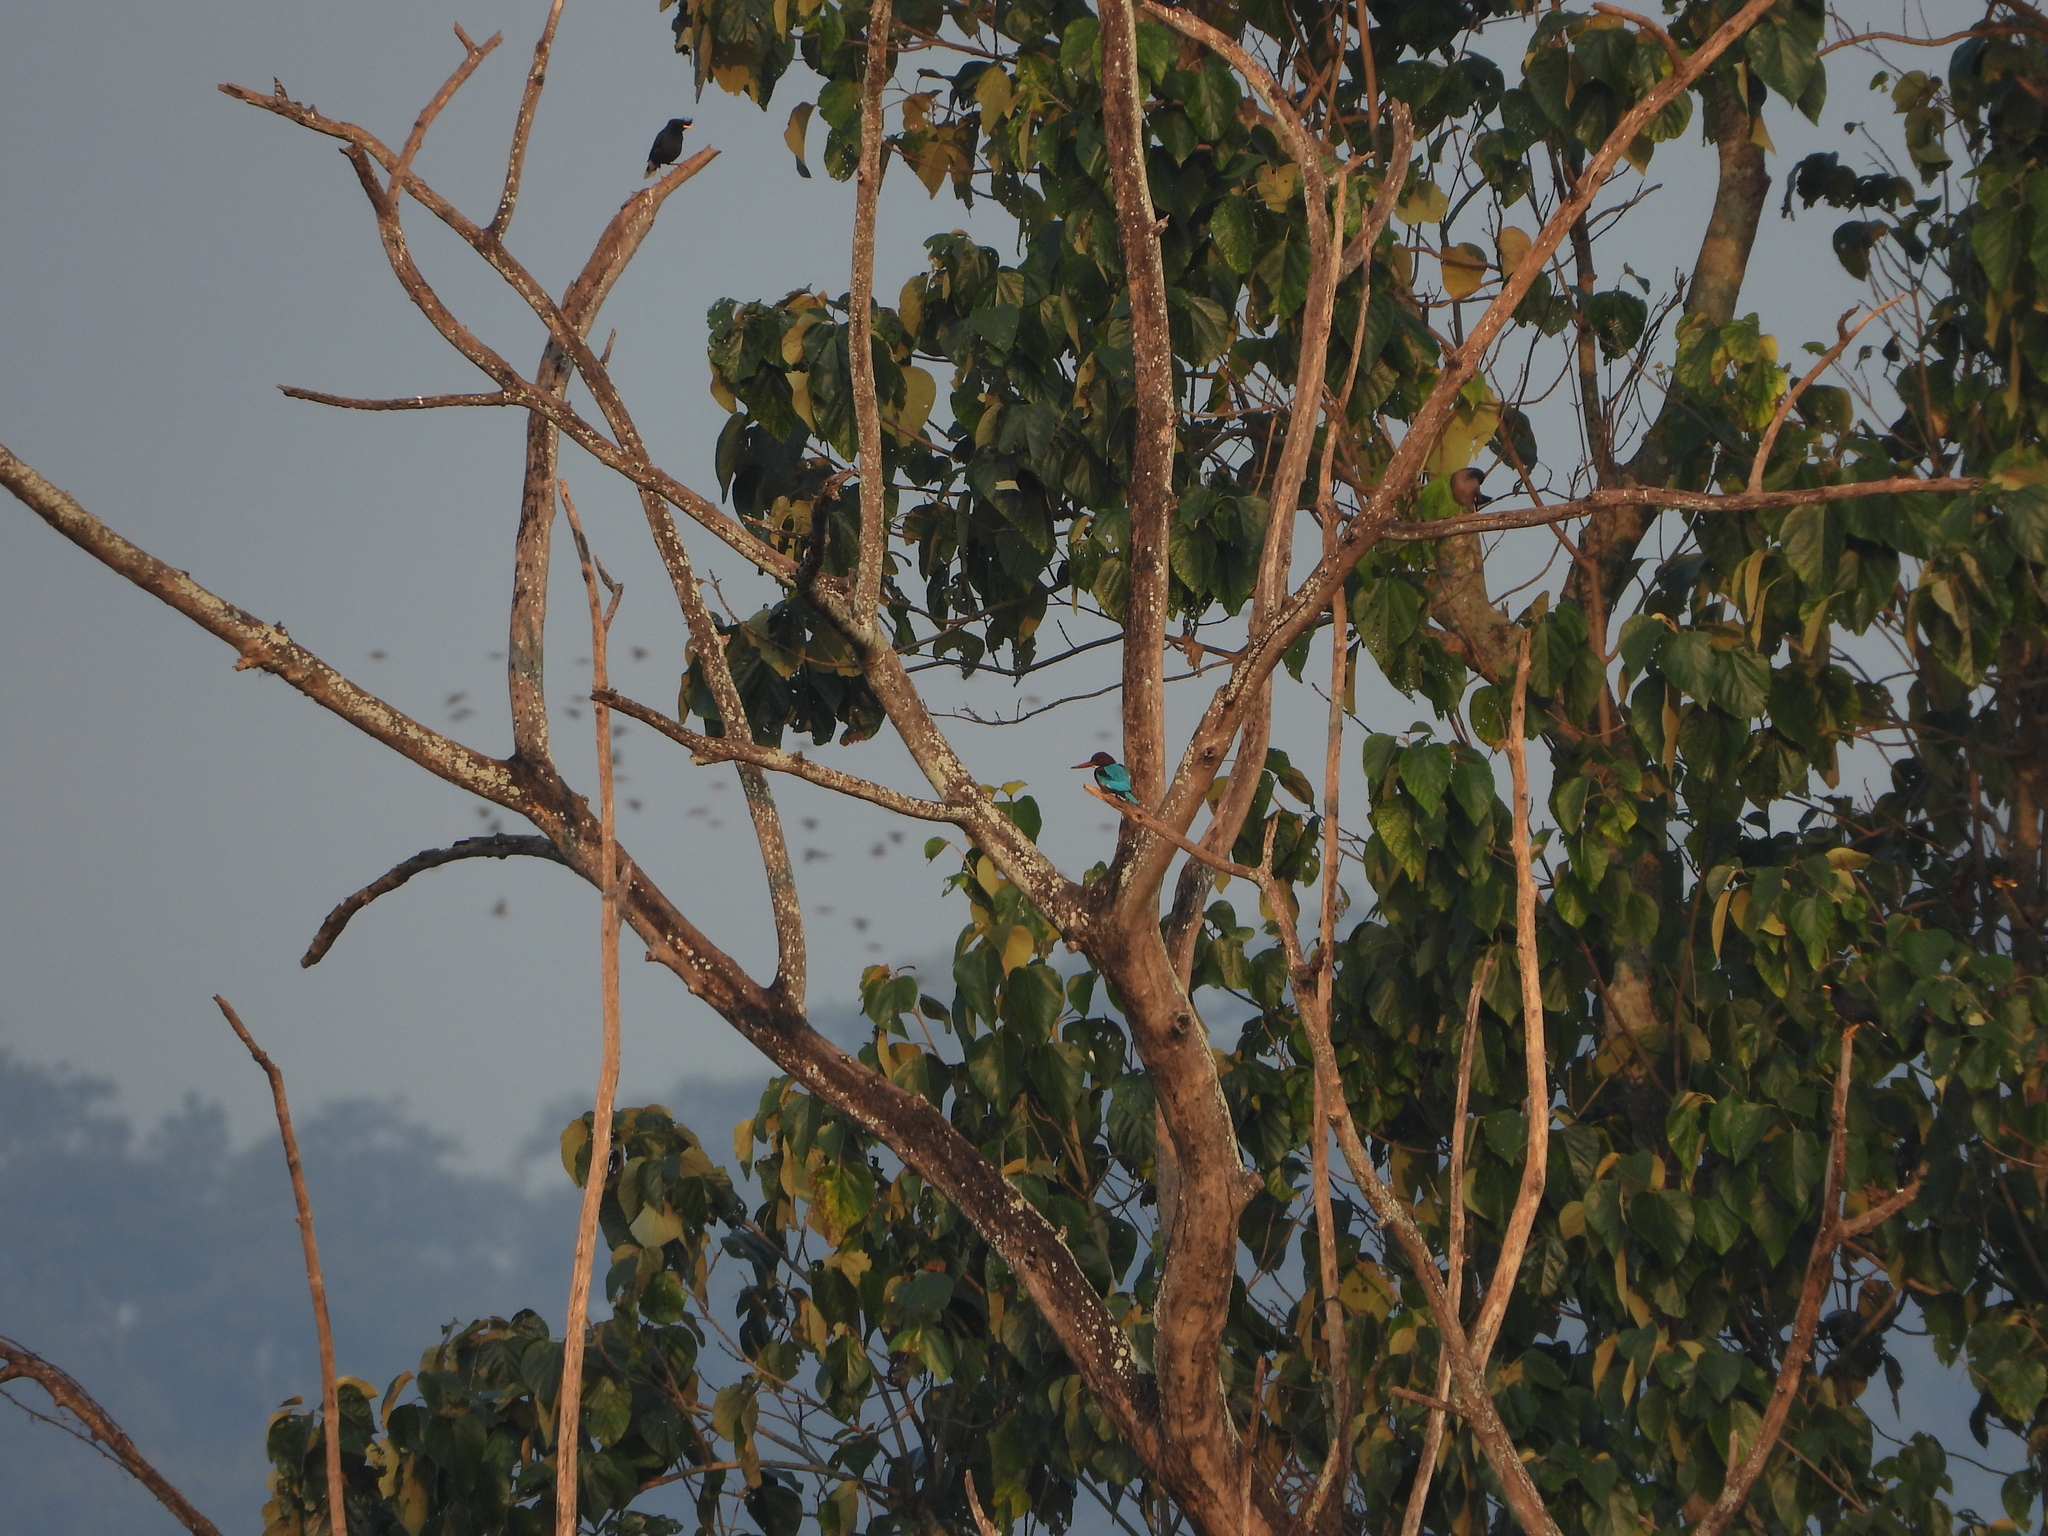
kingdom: Animalia
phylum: Chordata
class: Aves
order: Coraciiformes
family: Alcedinidae
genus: Halcyon
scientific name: Halcyon smyrnensis
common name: White-throated kingfisher
